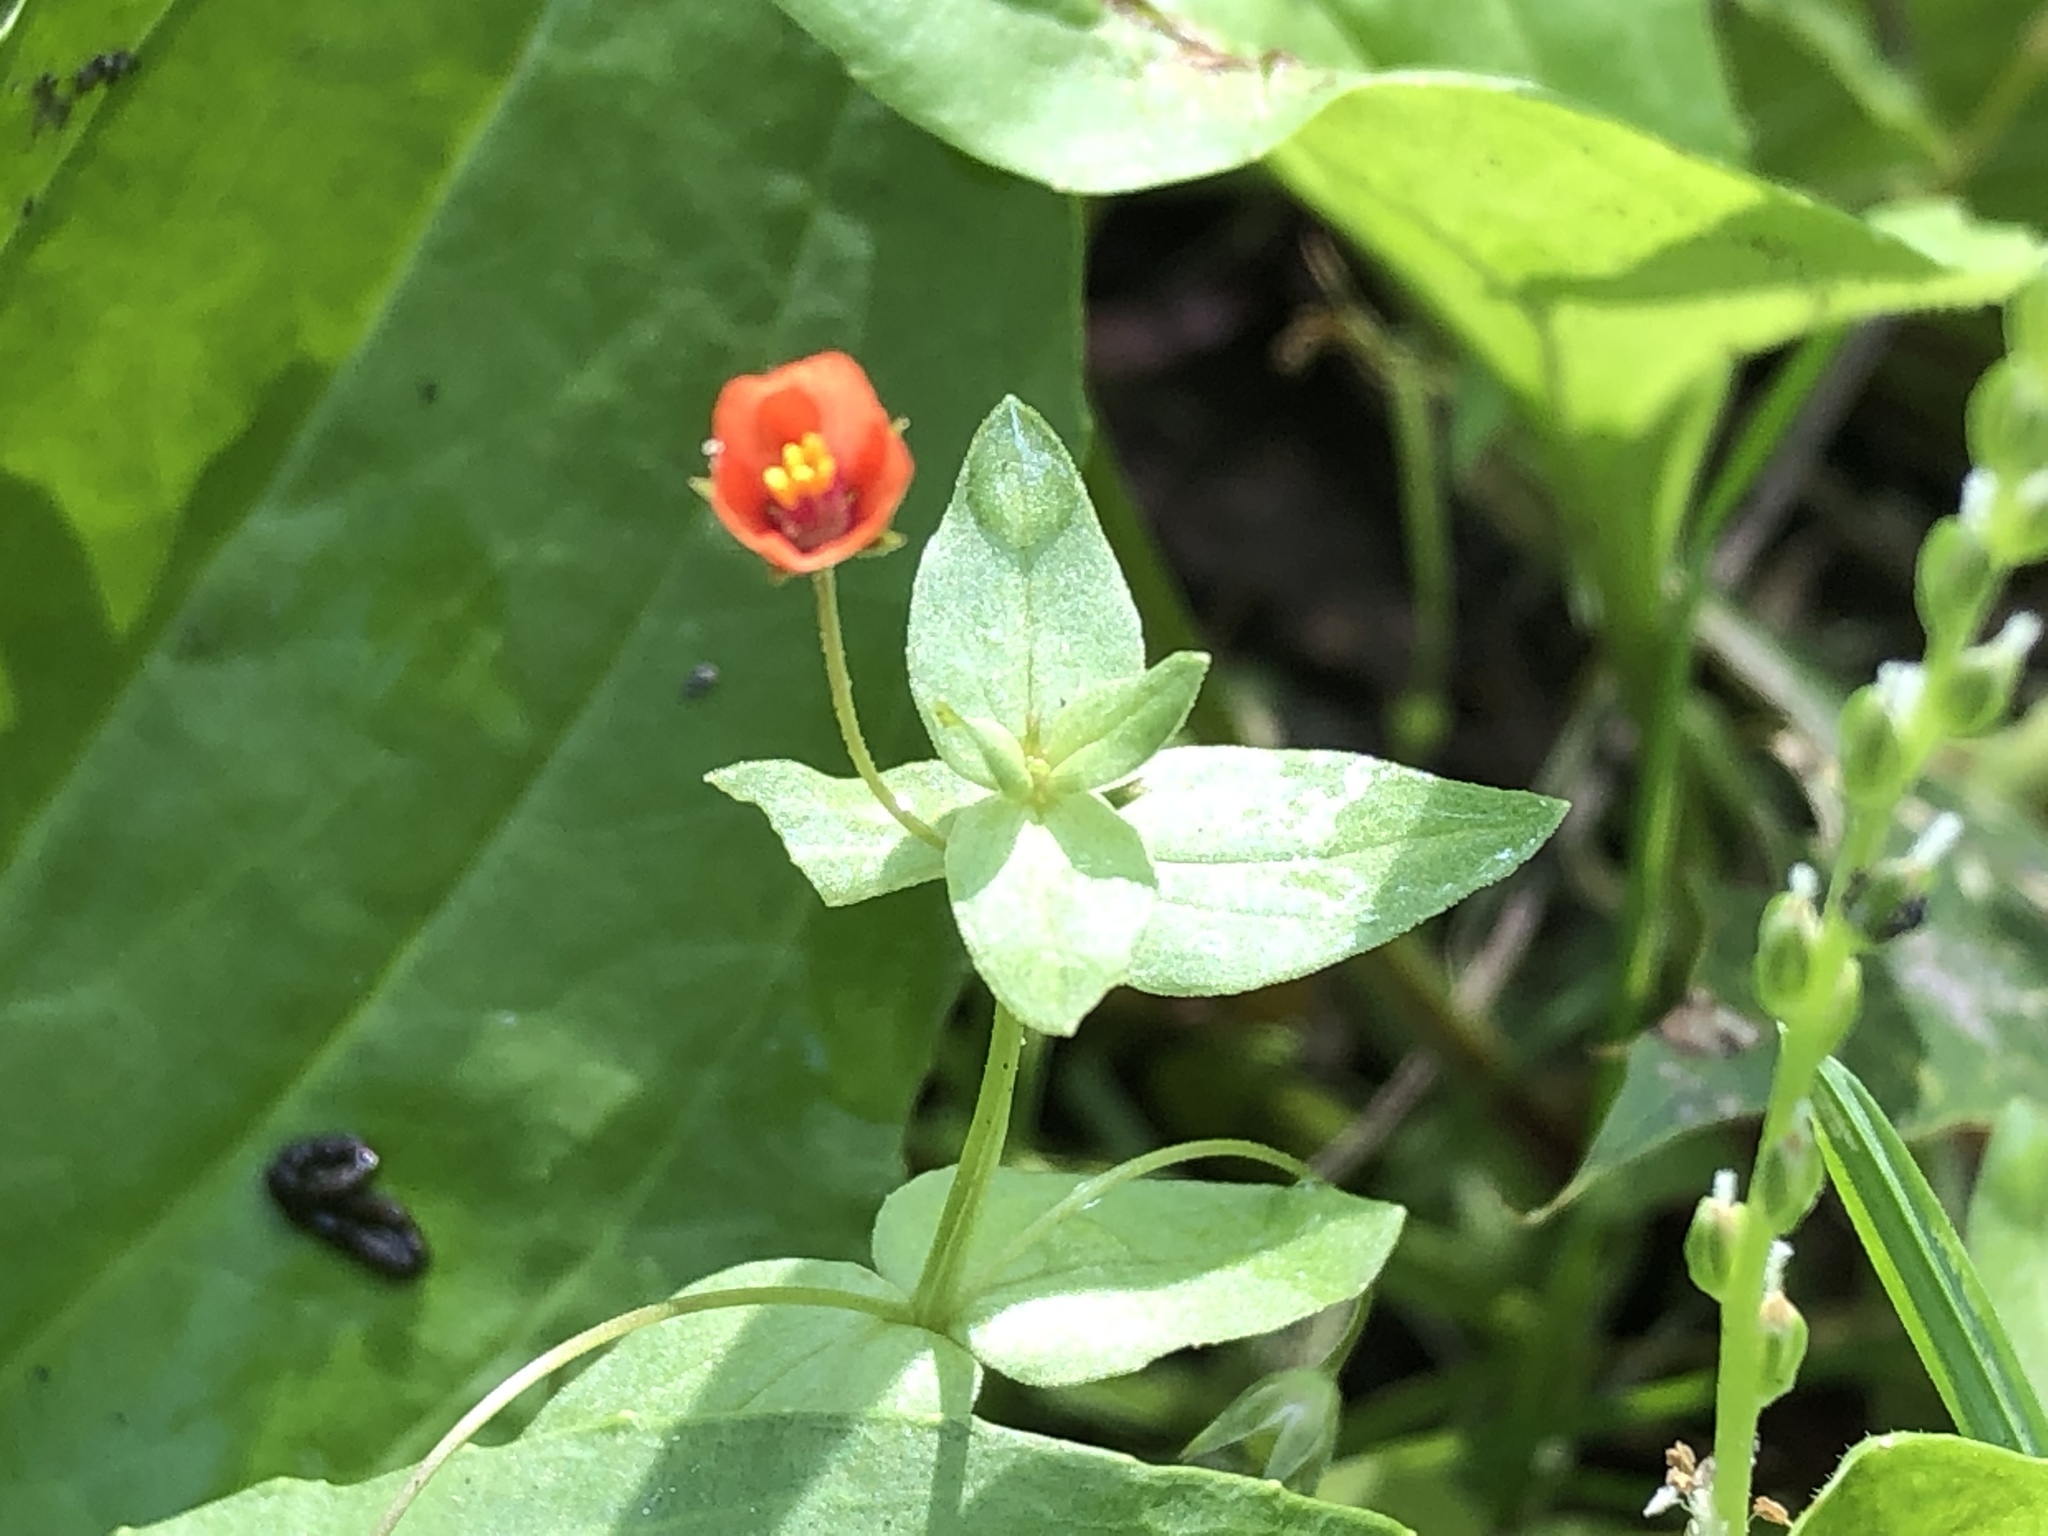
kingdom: Plantae
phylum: Tracheophyta
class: Magnoliopsida
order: Ericales
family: Primulaceae
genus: Lysimachia
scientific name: Lysimachia arvensis
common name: Scarlet pimpernel
